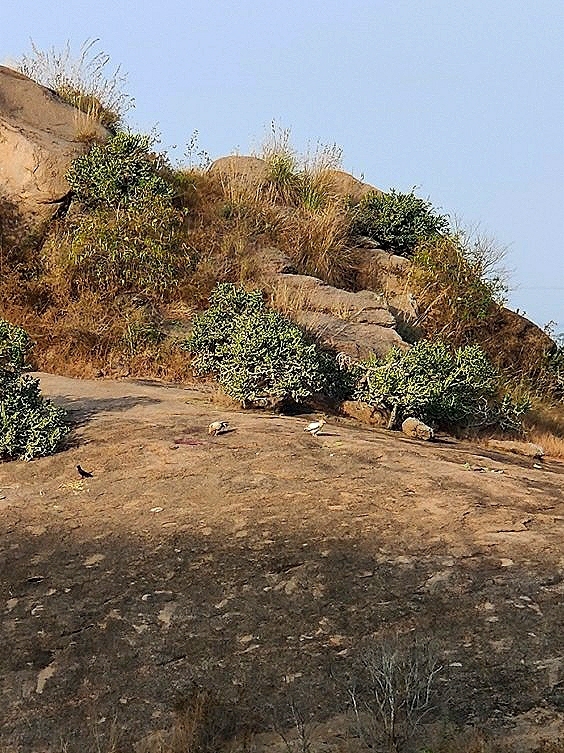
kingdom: Animalia
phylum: Chordata
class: Aves
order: Accipitriformes
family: Accipitridae
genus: Neophron
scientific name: Neophron percnopterus
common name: Egyptian vulture
